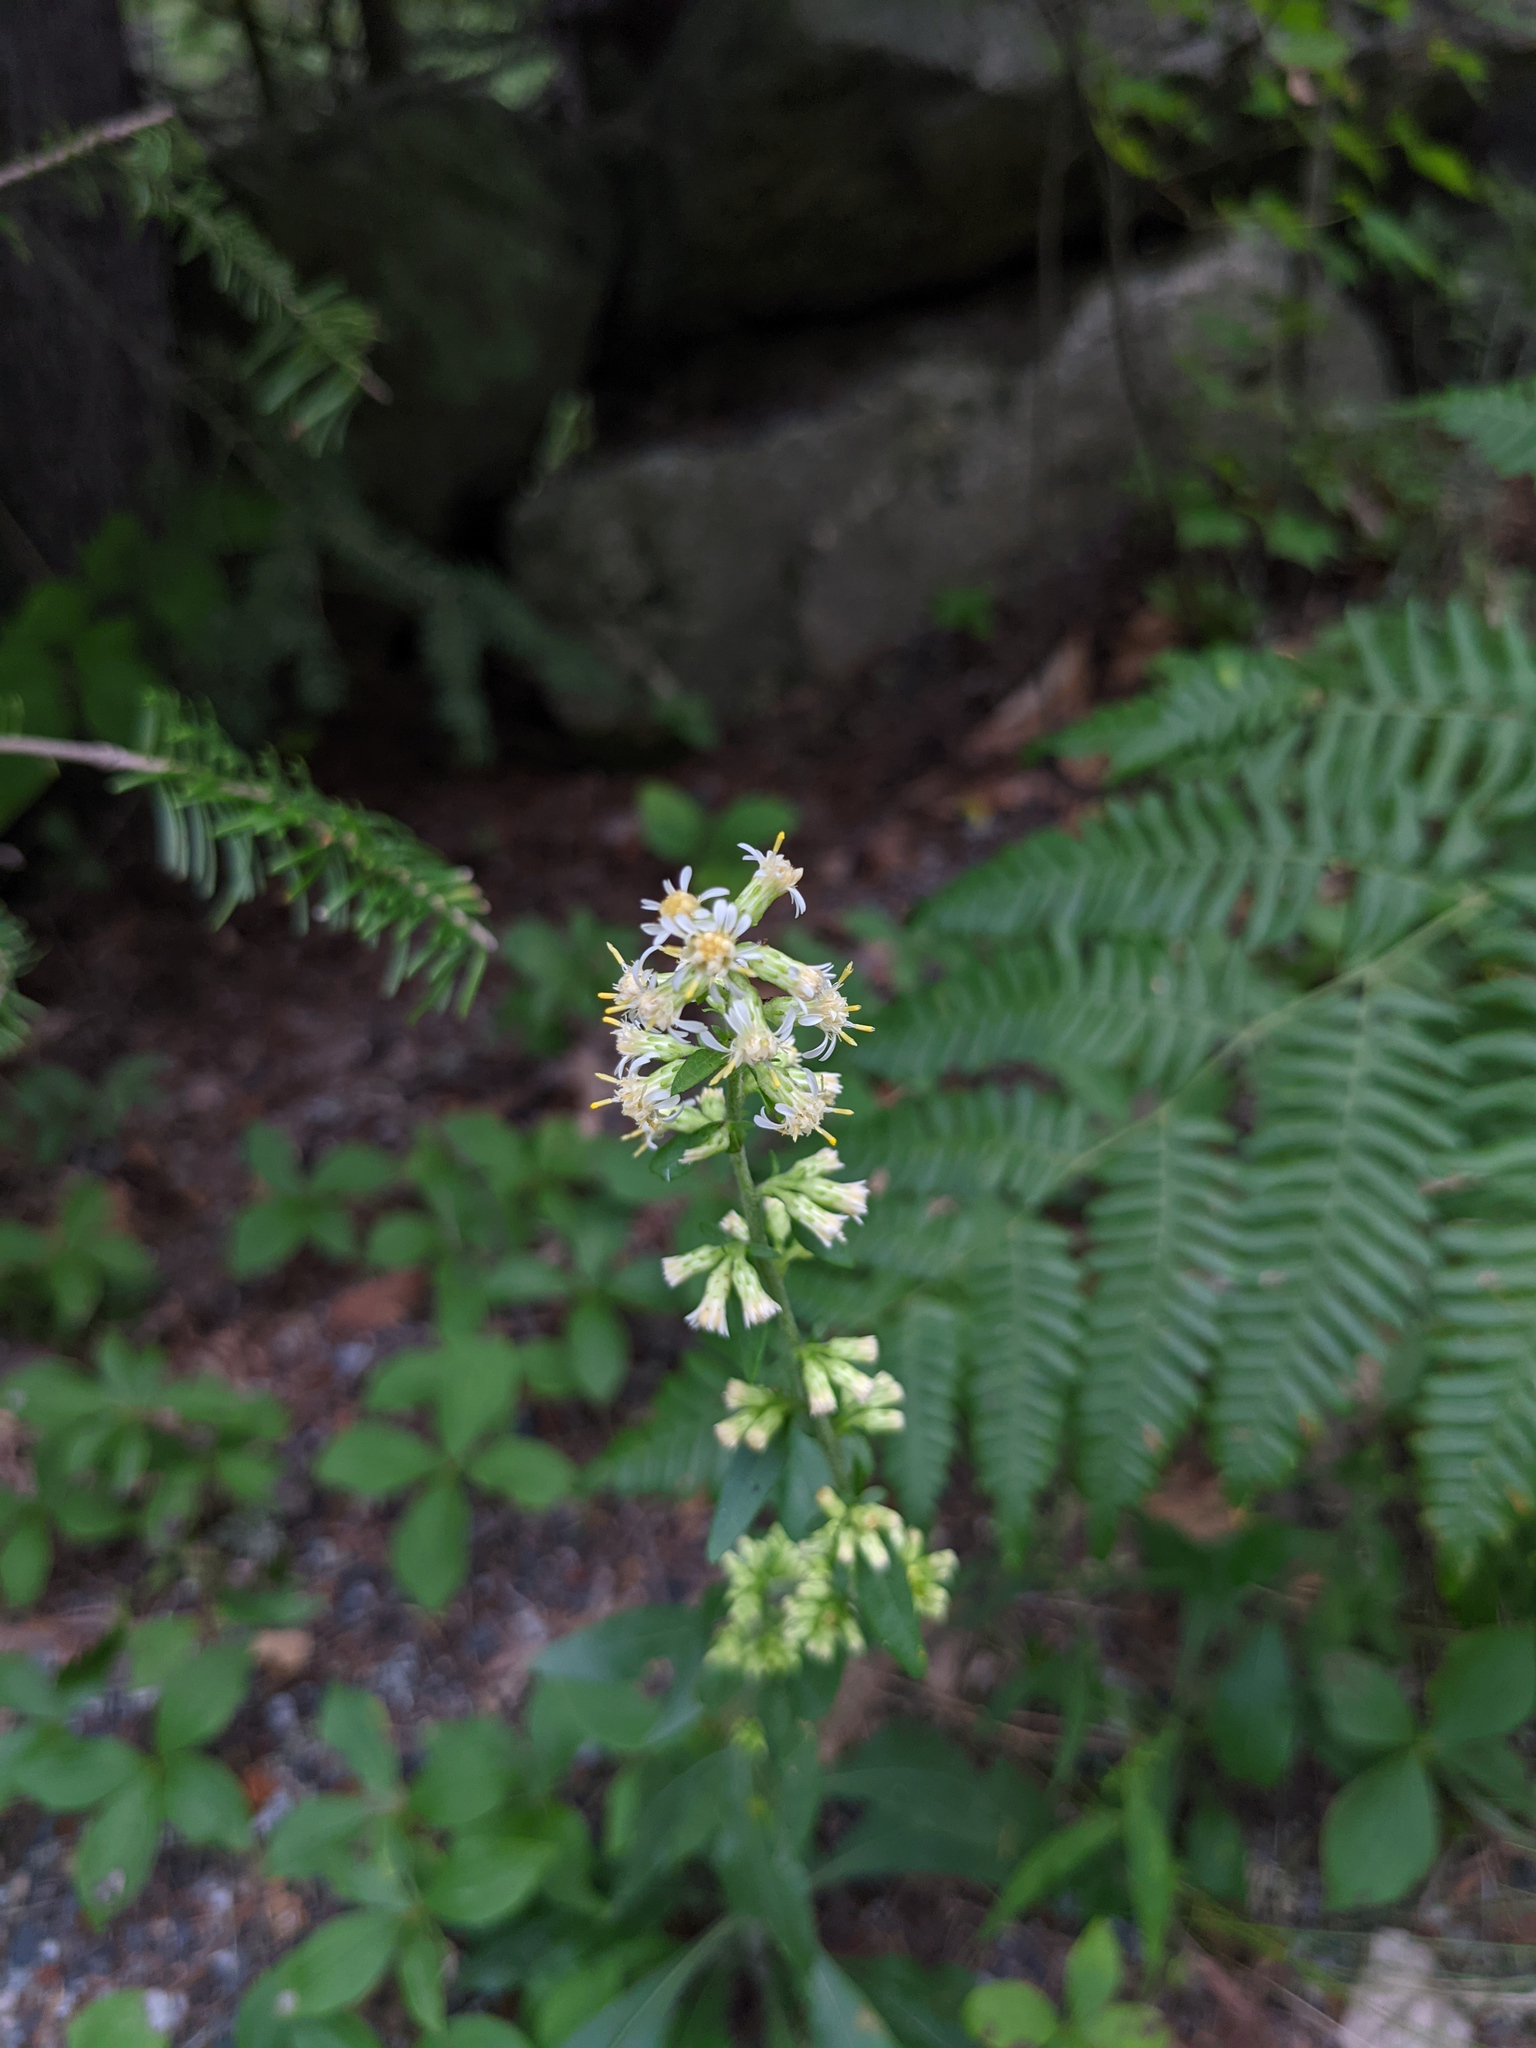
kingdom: Plantae
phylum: Tracheophyta
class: Magnoliopsida
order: Asterales
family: Asteraceae
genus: Solidago
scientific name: Solidago bicolor
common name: Silverrod
